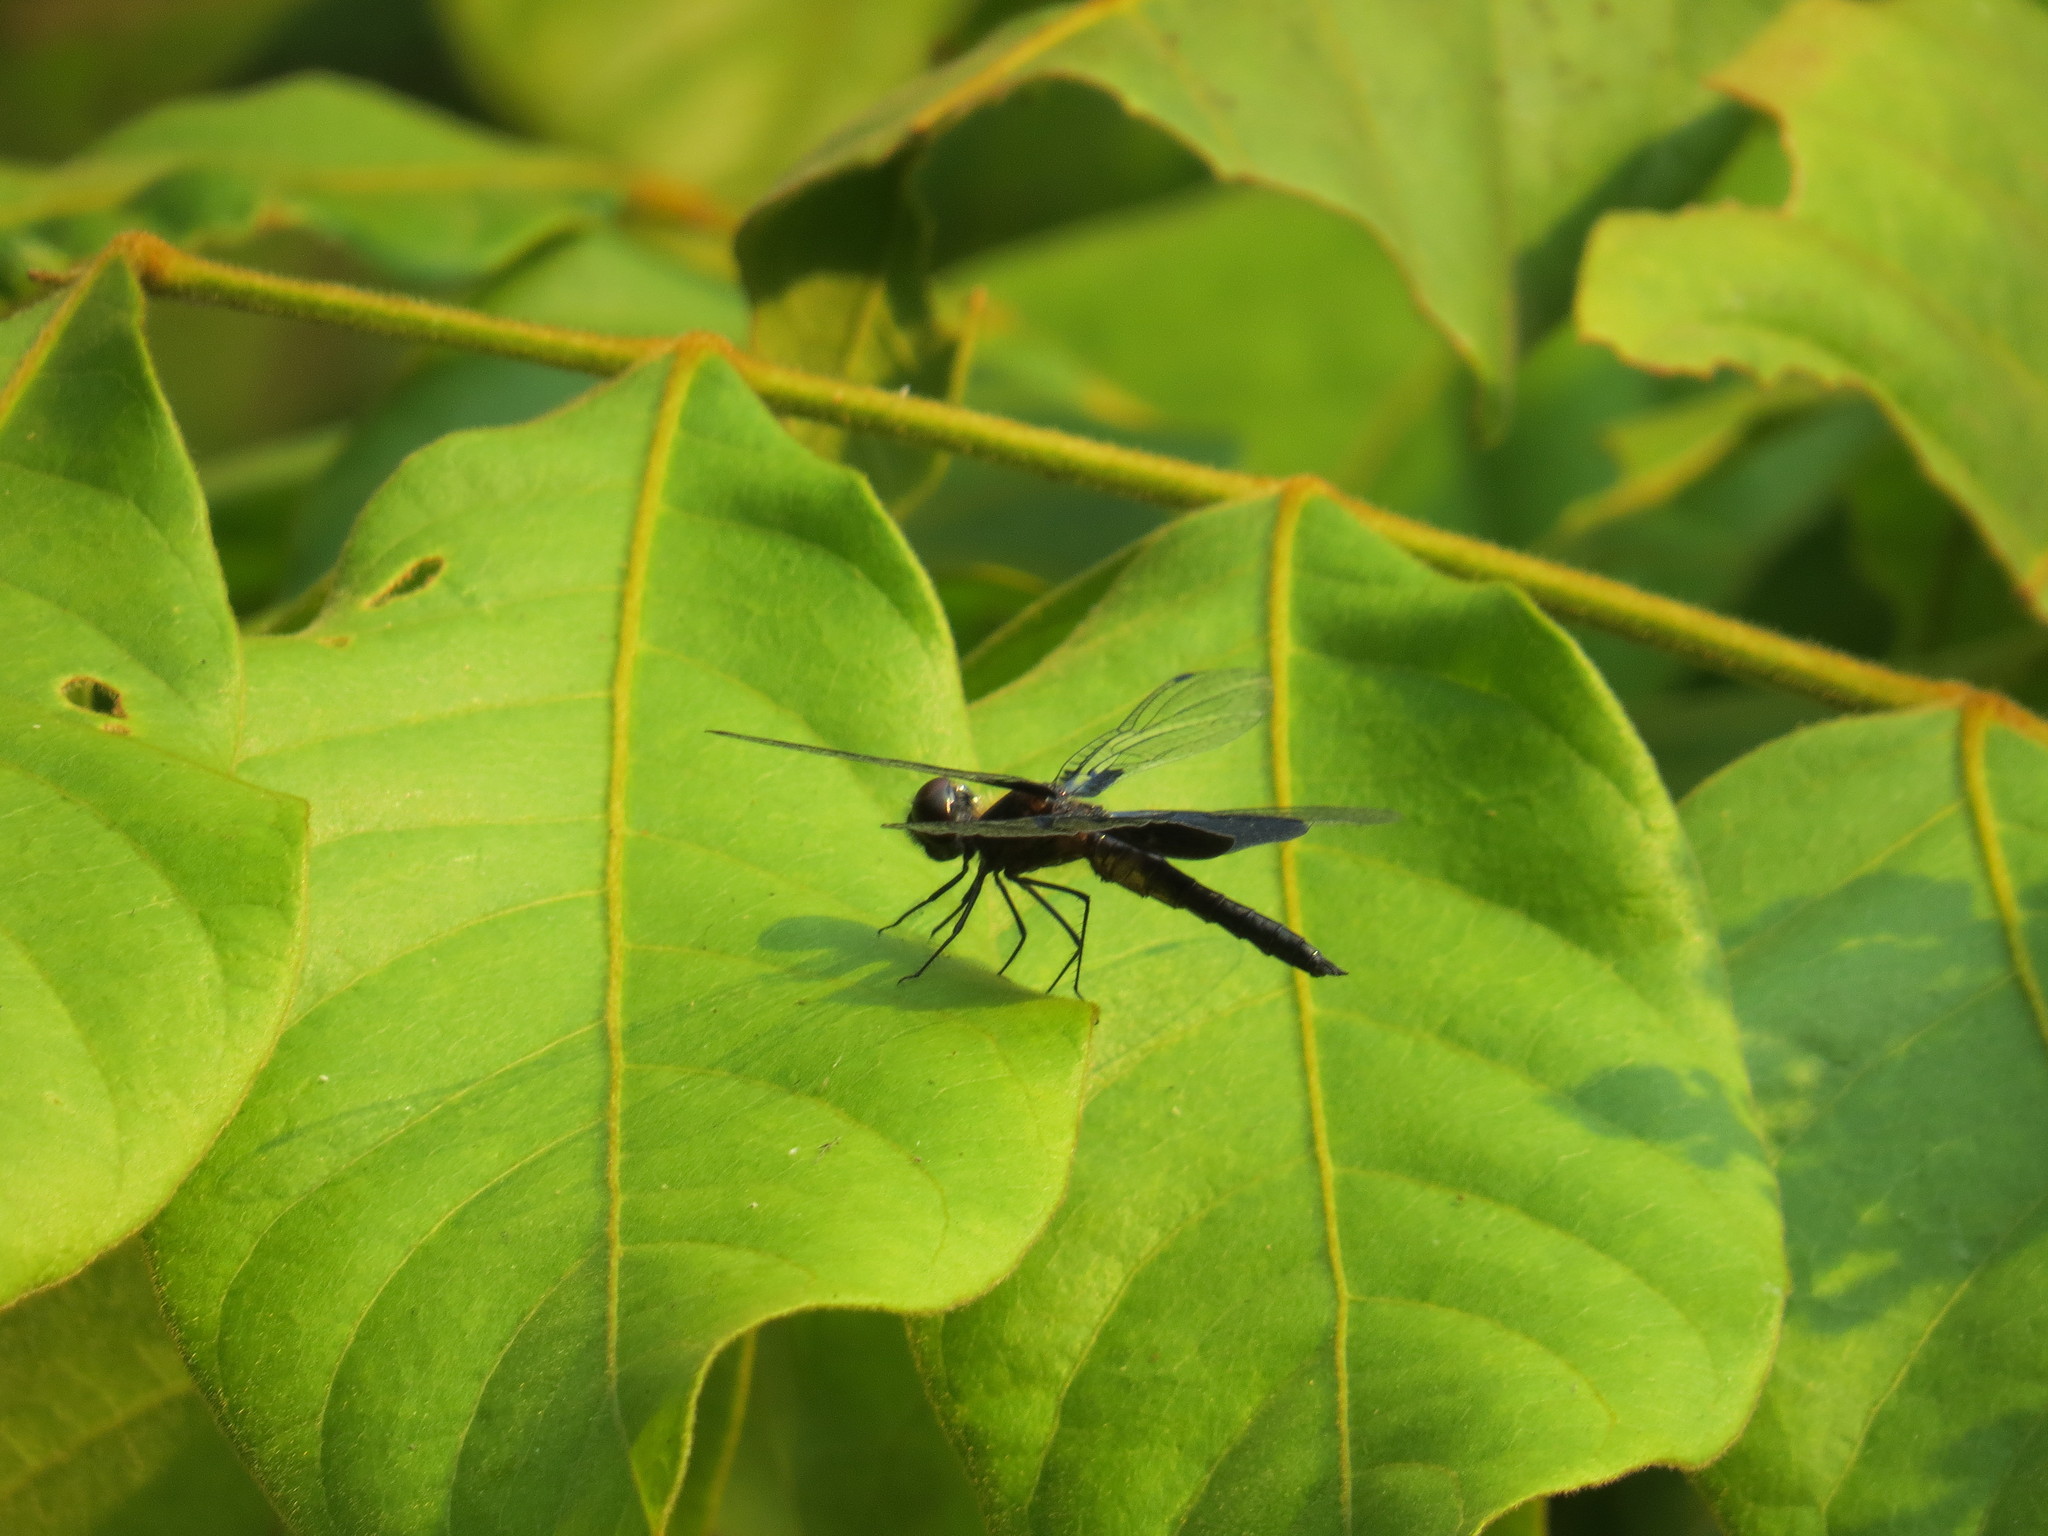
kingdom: Animalia
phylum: Arthropoda
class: Insecta
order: Odonata
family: Libellulidae
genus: Rhyothemis
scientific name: Rhyothemis triangularis
